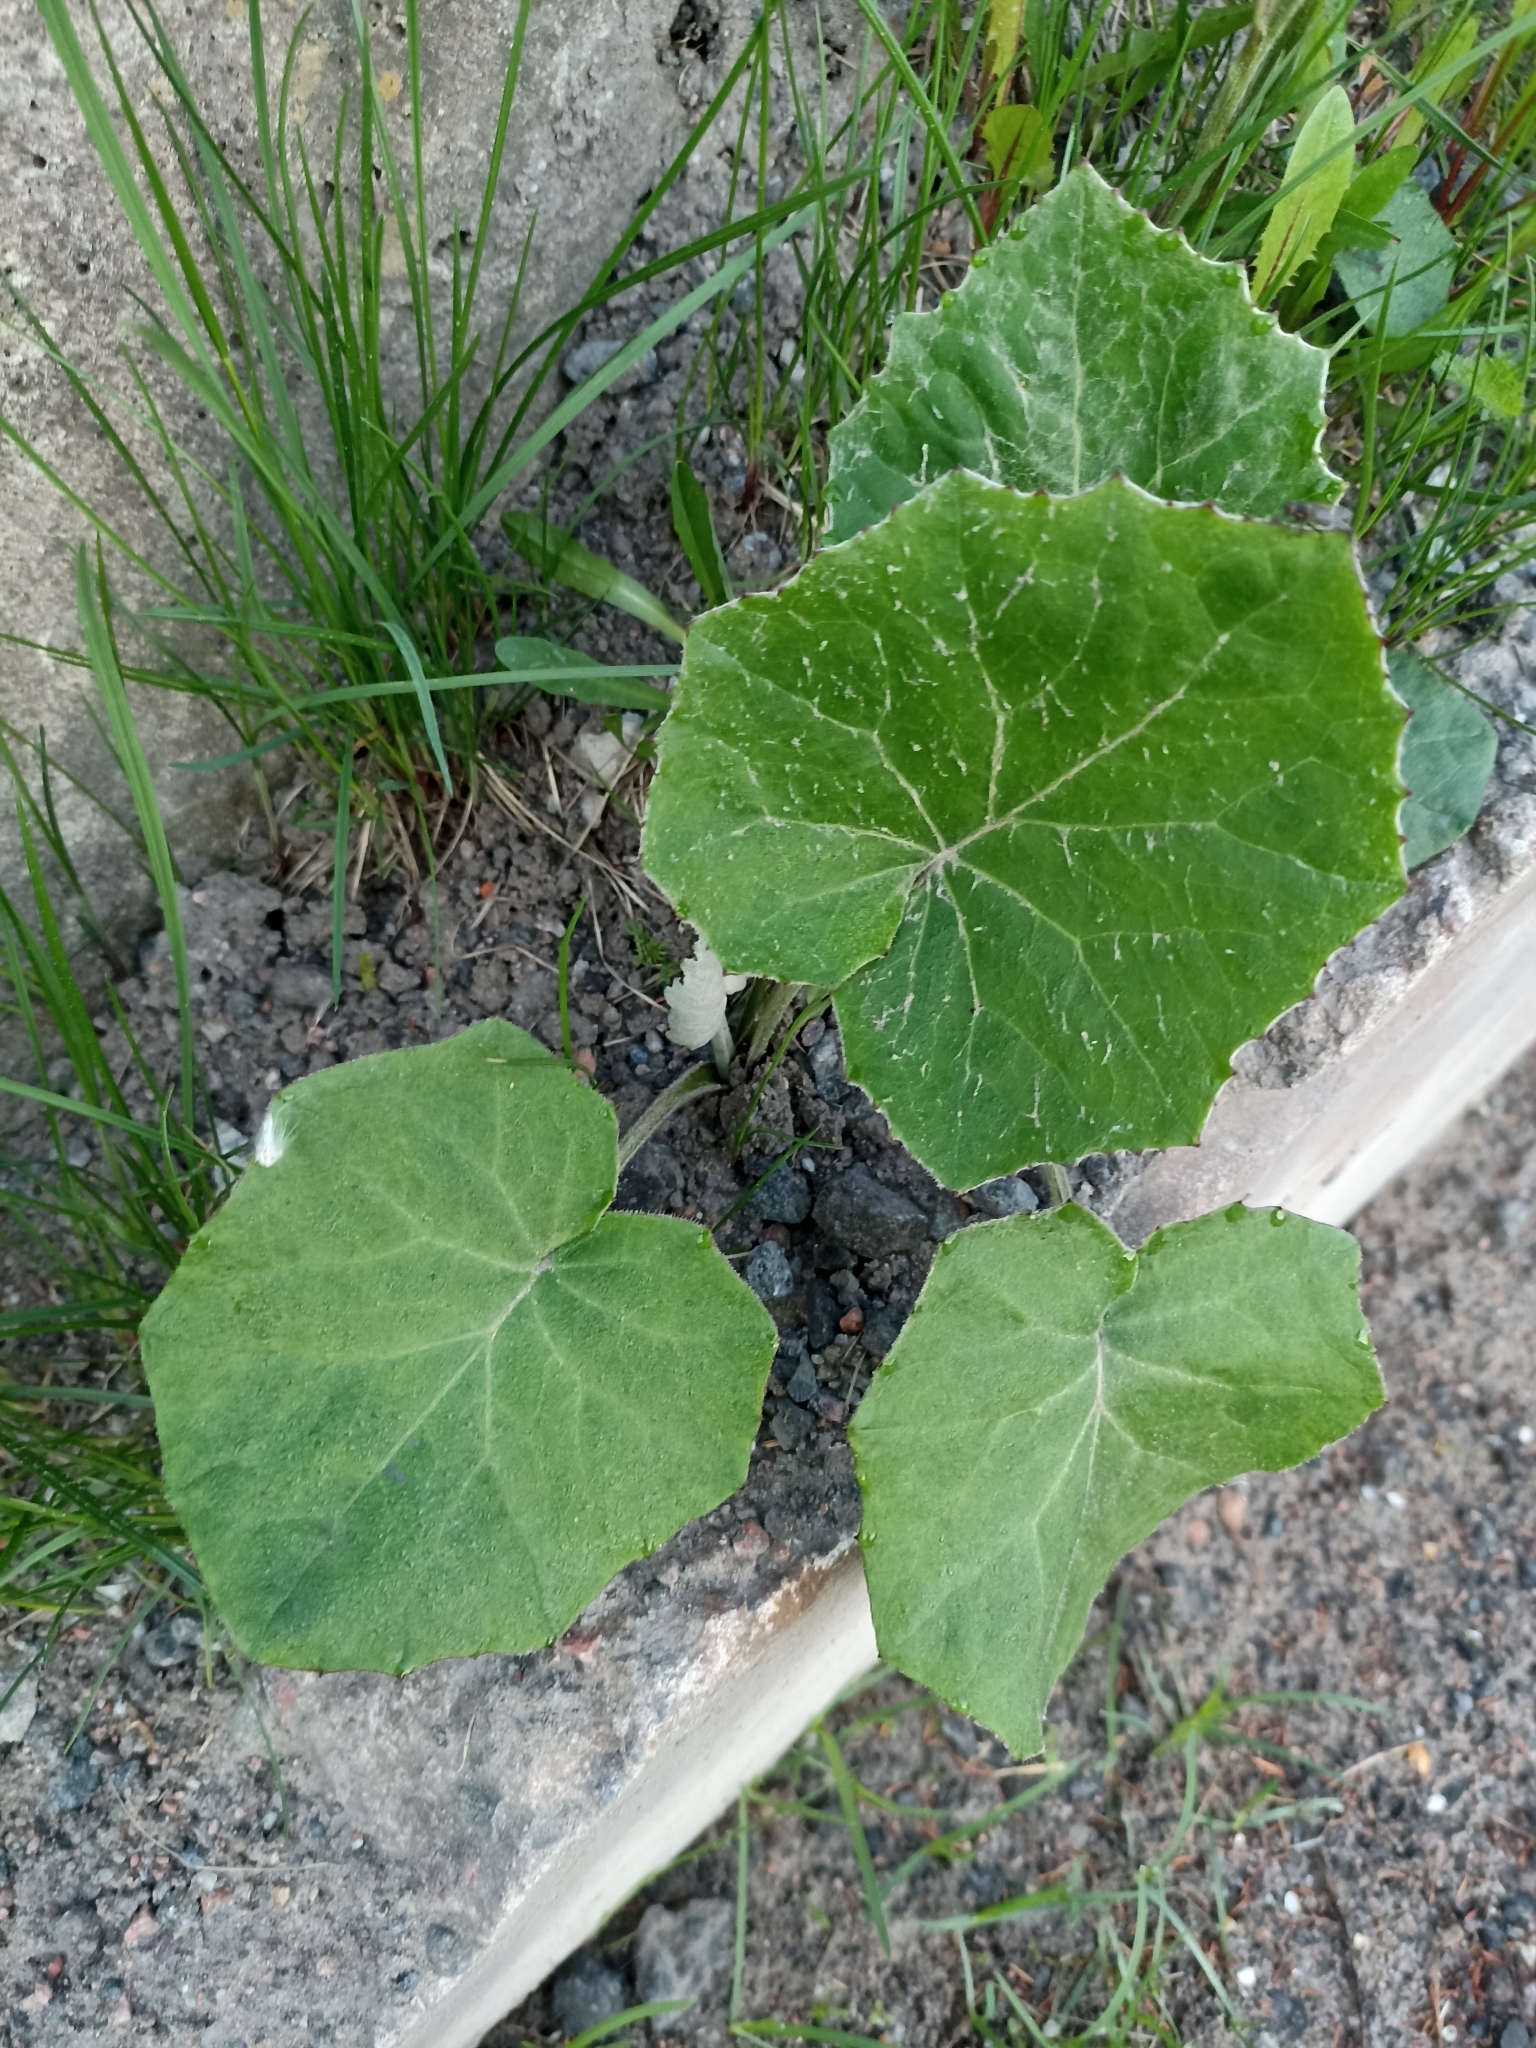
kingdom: Plantae
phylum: Tracheophyta
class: Magnoliopsida
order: Asterales
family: Asteraceae
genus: Tussilago
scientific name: Tussilago farfara
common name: Coltsfoot
